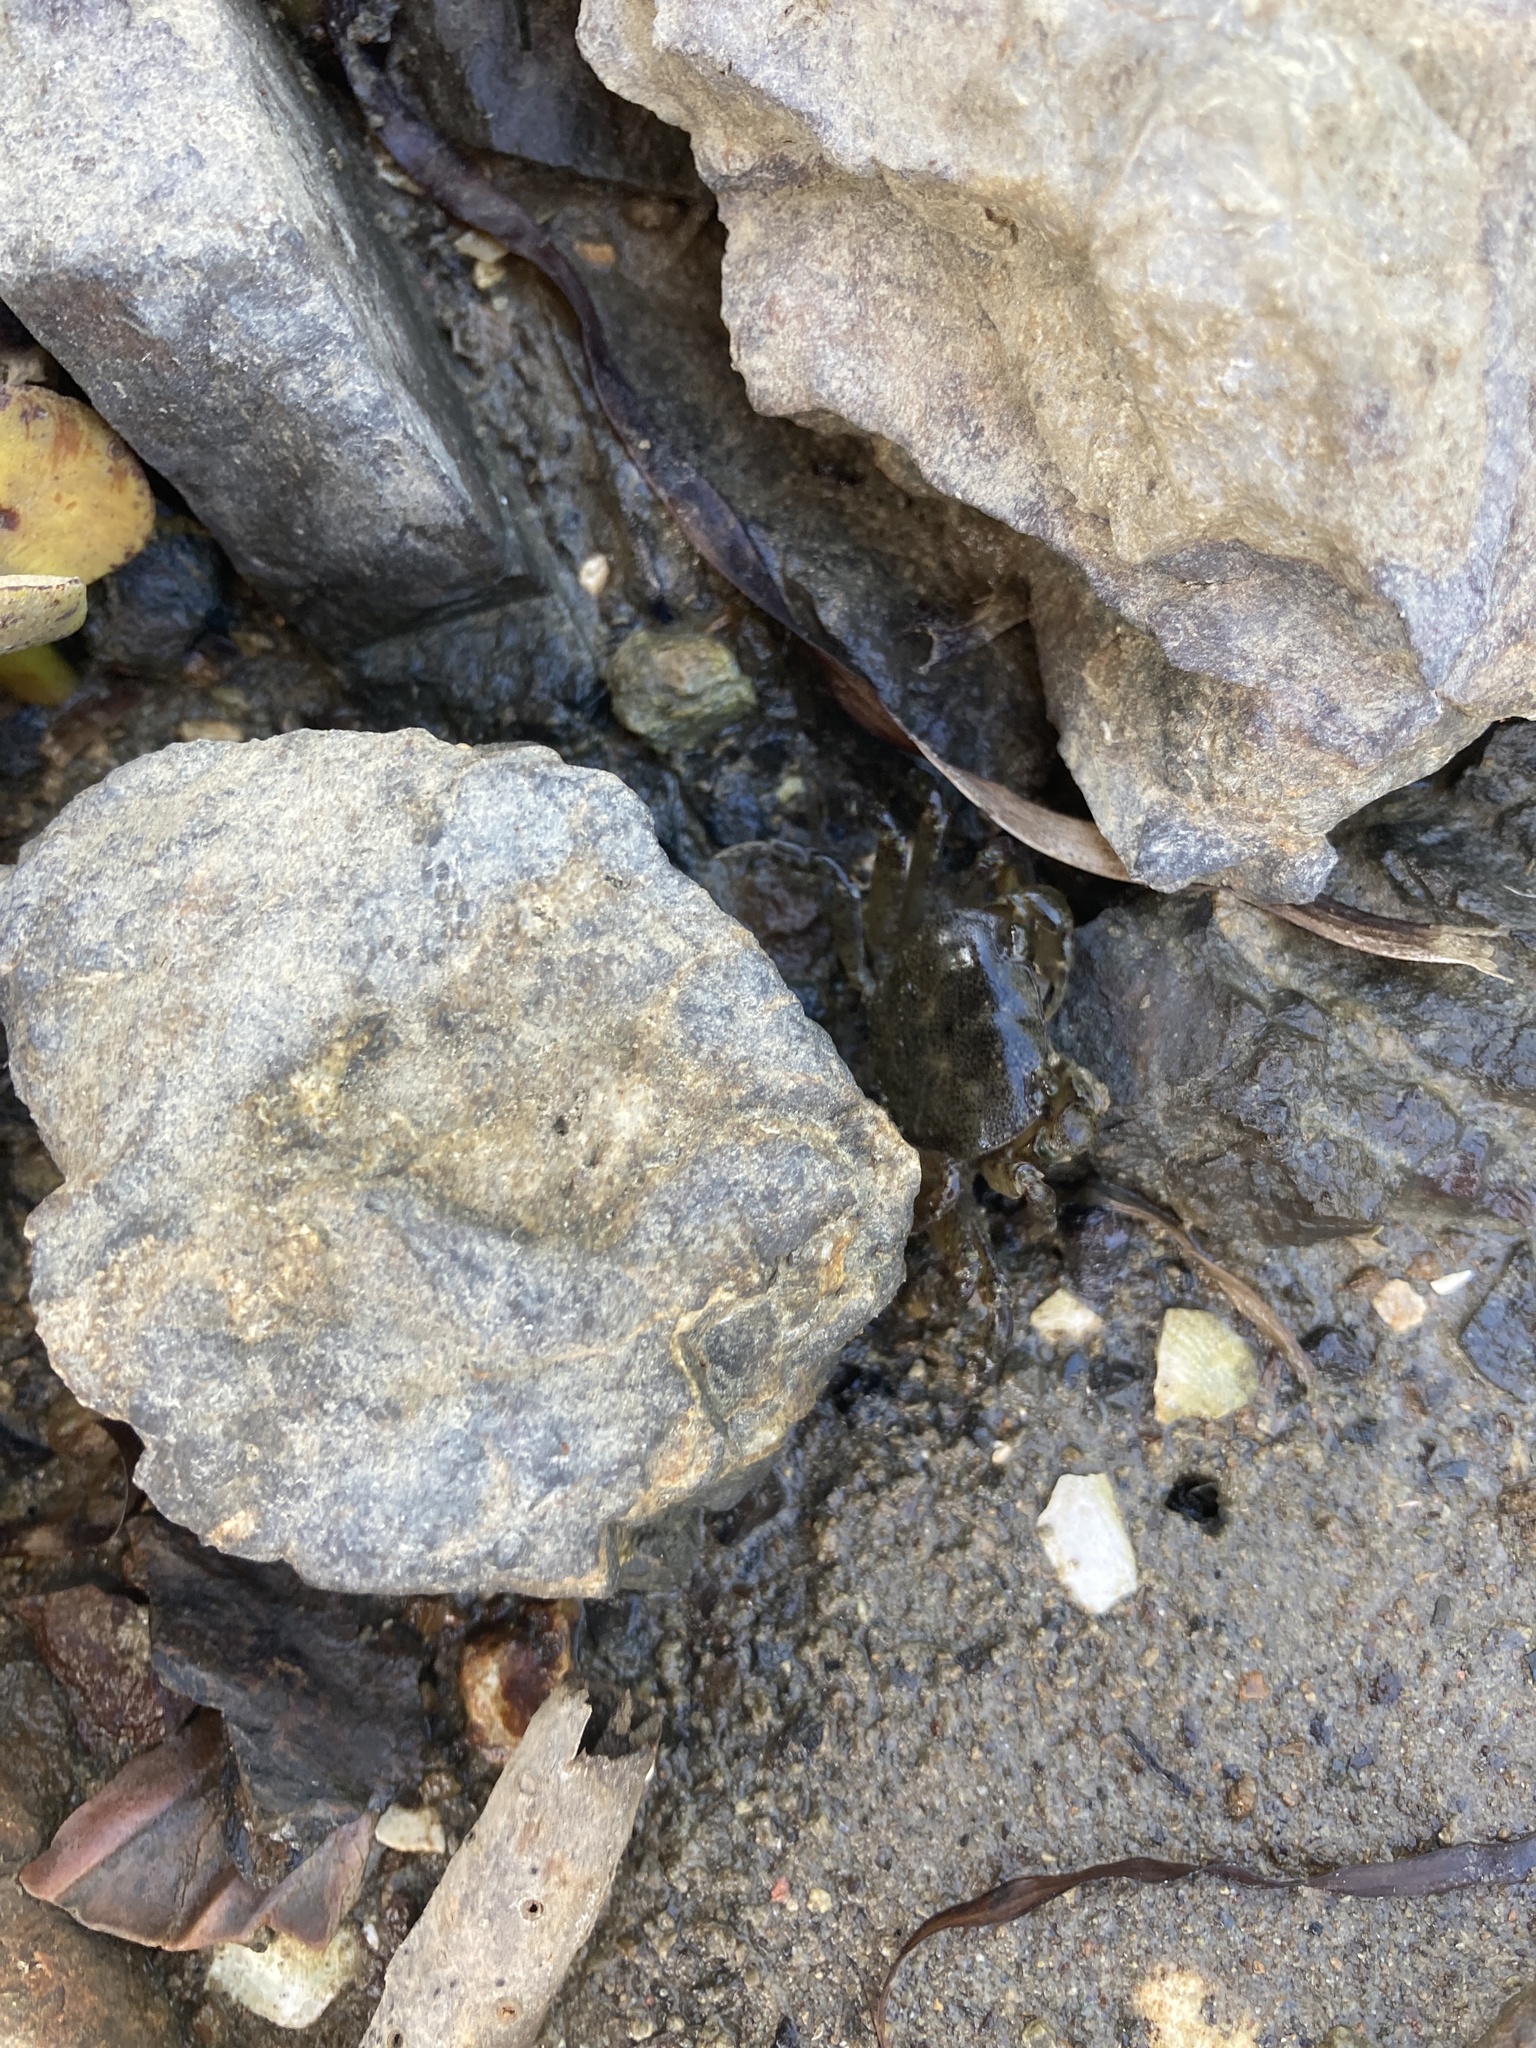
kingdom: Animalia
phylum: Arthropoda
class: Malacostraca
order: Decapoda
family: Varunidae
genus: Cyclograpsus
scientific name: Cyclograpsus lavauxi
